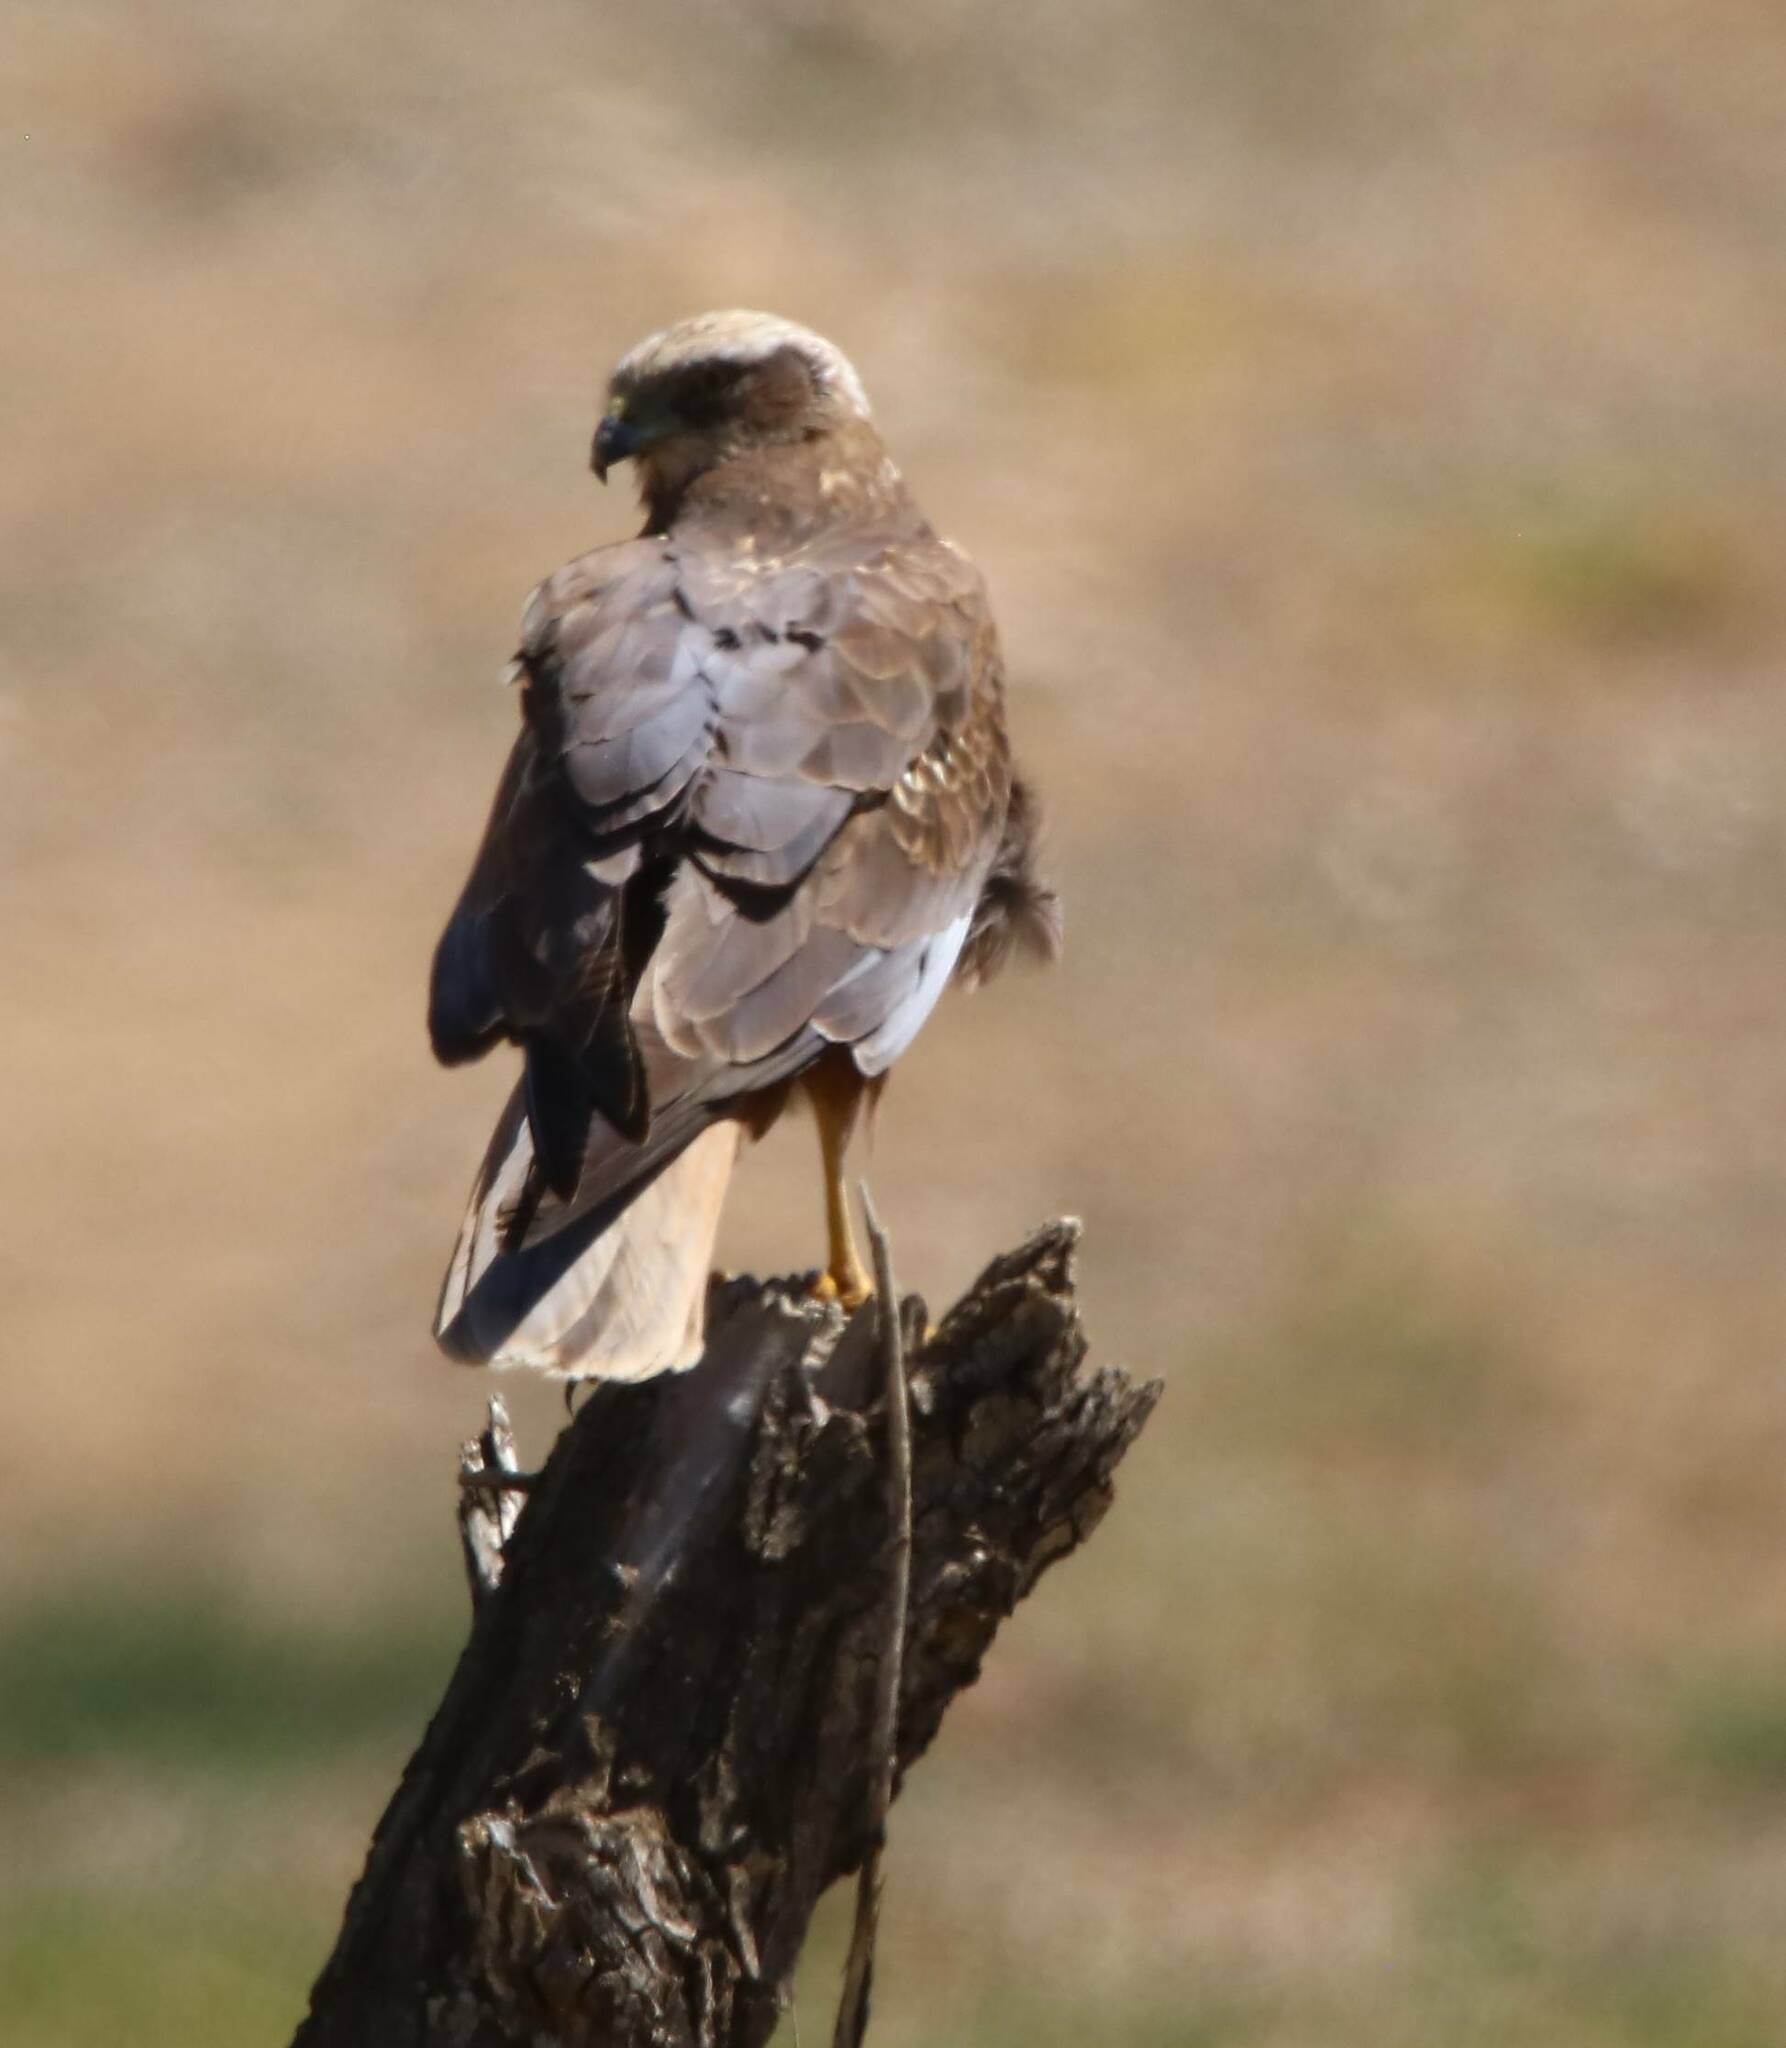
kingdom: Animalia
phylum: Chordata
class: Aves
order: Accipitriformes
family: Accipitridae
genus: Circus
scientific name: Circus aeruginosus
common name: Western marsh harrier
